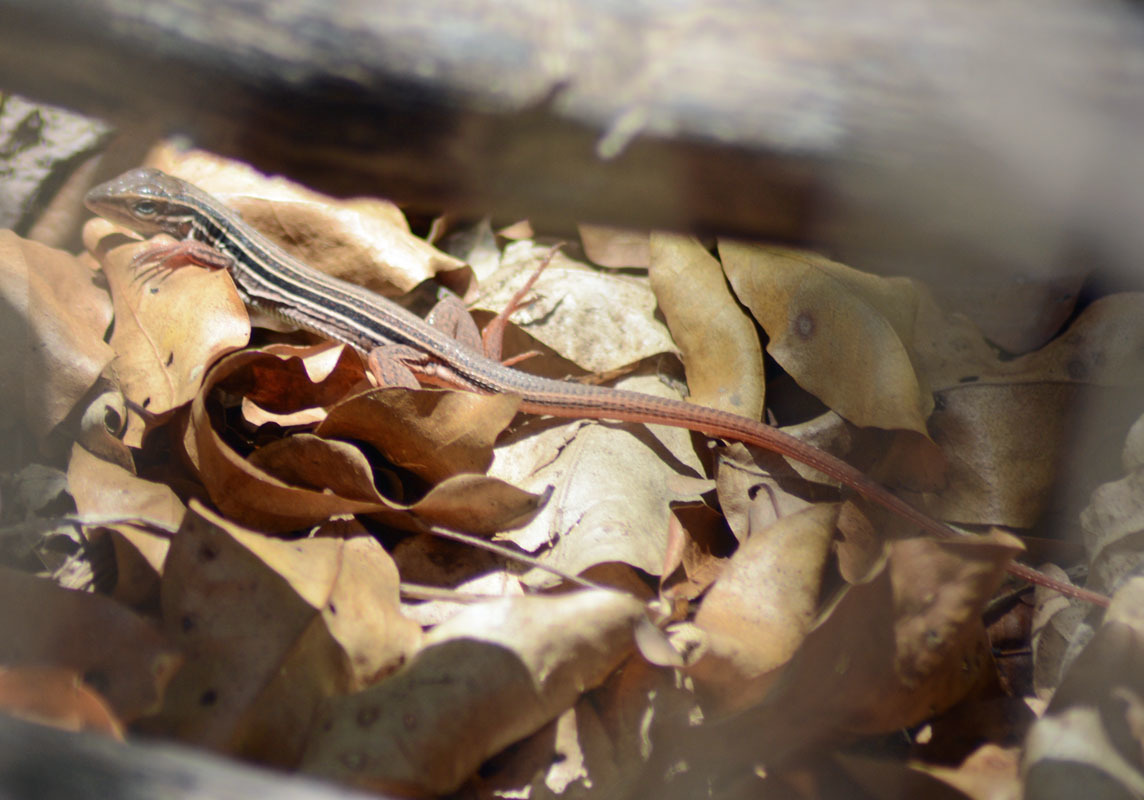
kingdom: Animalia
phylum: Chordata
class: Squamata
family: Teiidae
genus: Aspidoscelis
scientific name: Aspidoscelis costatus
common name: Western mexico whiptail
